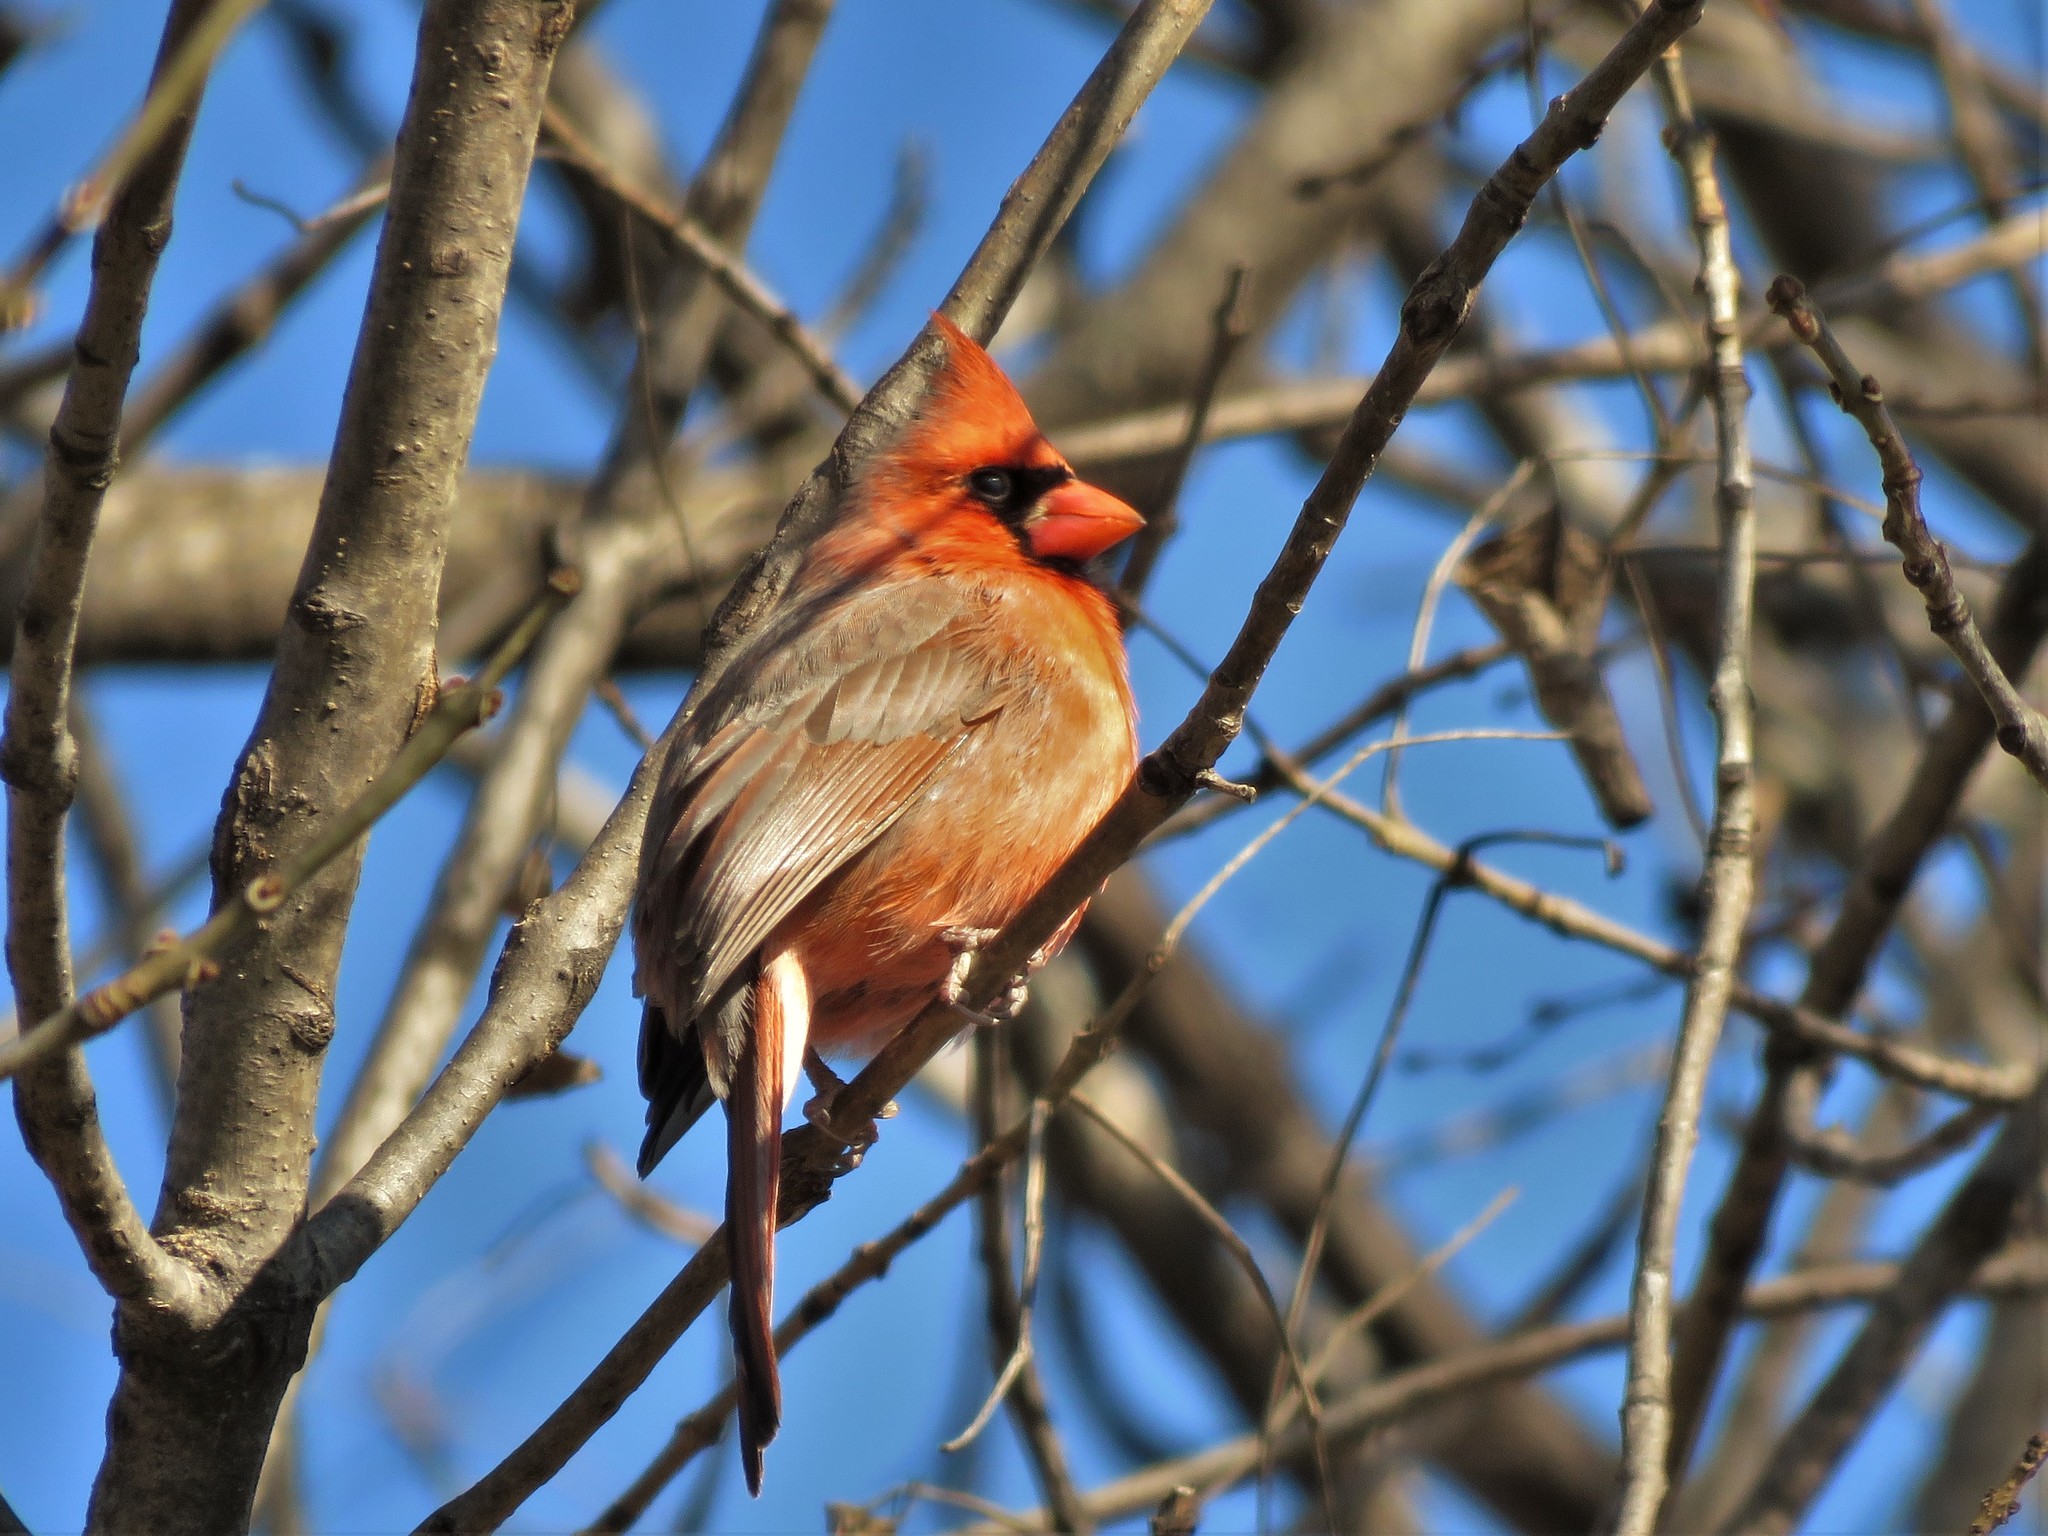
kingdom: Animalia
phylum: Chordata
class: Aves
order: Passeriformes
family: Cardinalidae
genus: Cardinalis
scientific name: Cardinalis cardinalis
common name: Northern cardinal
